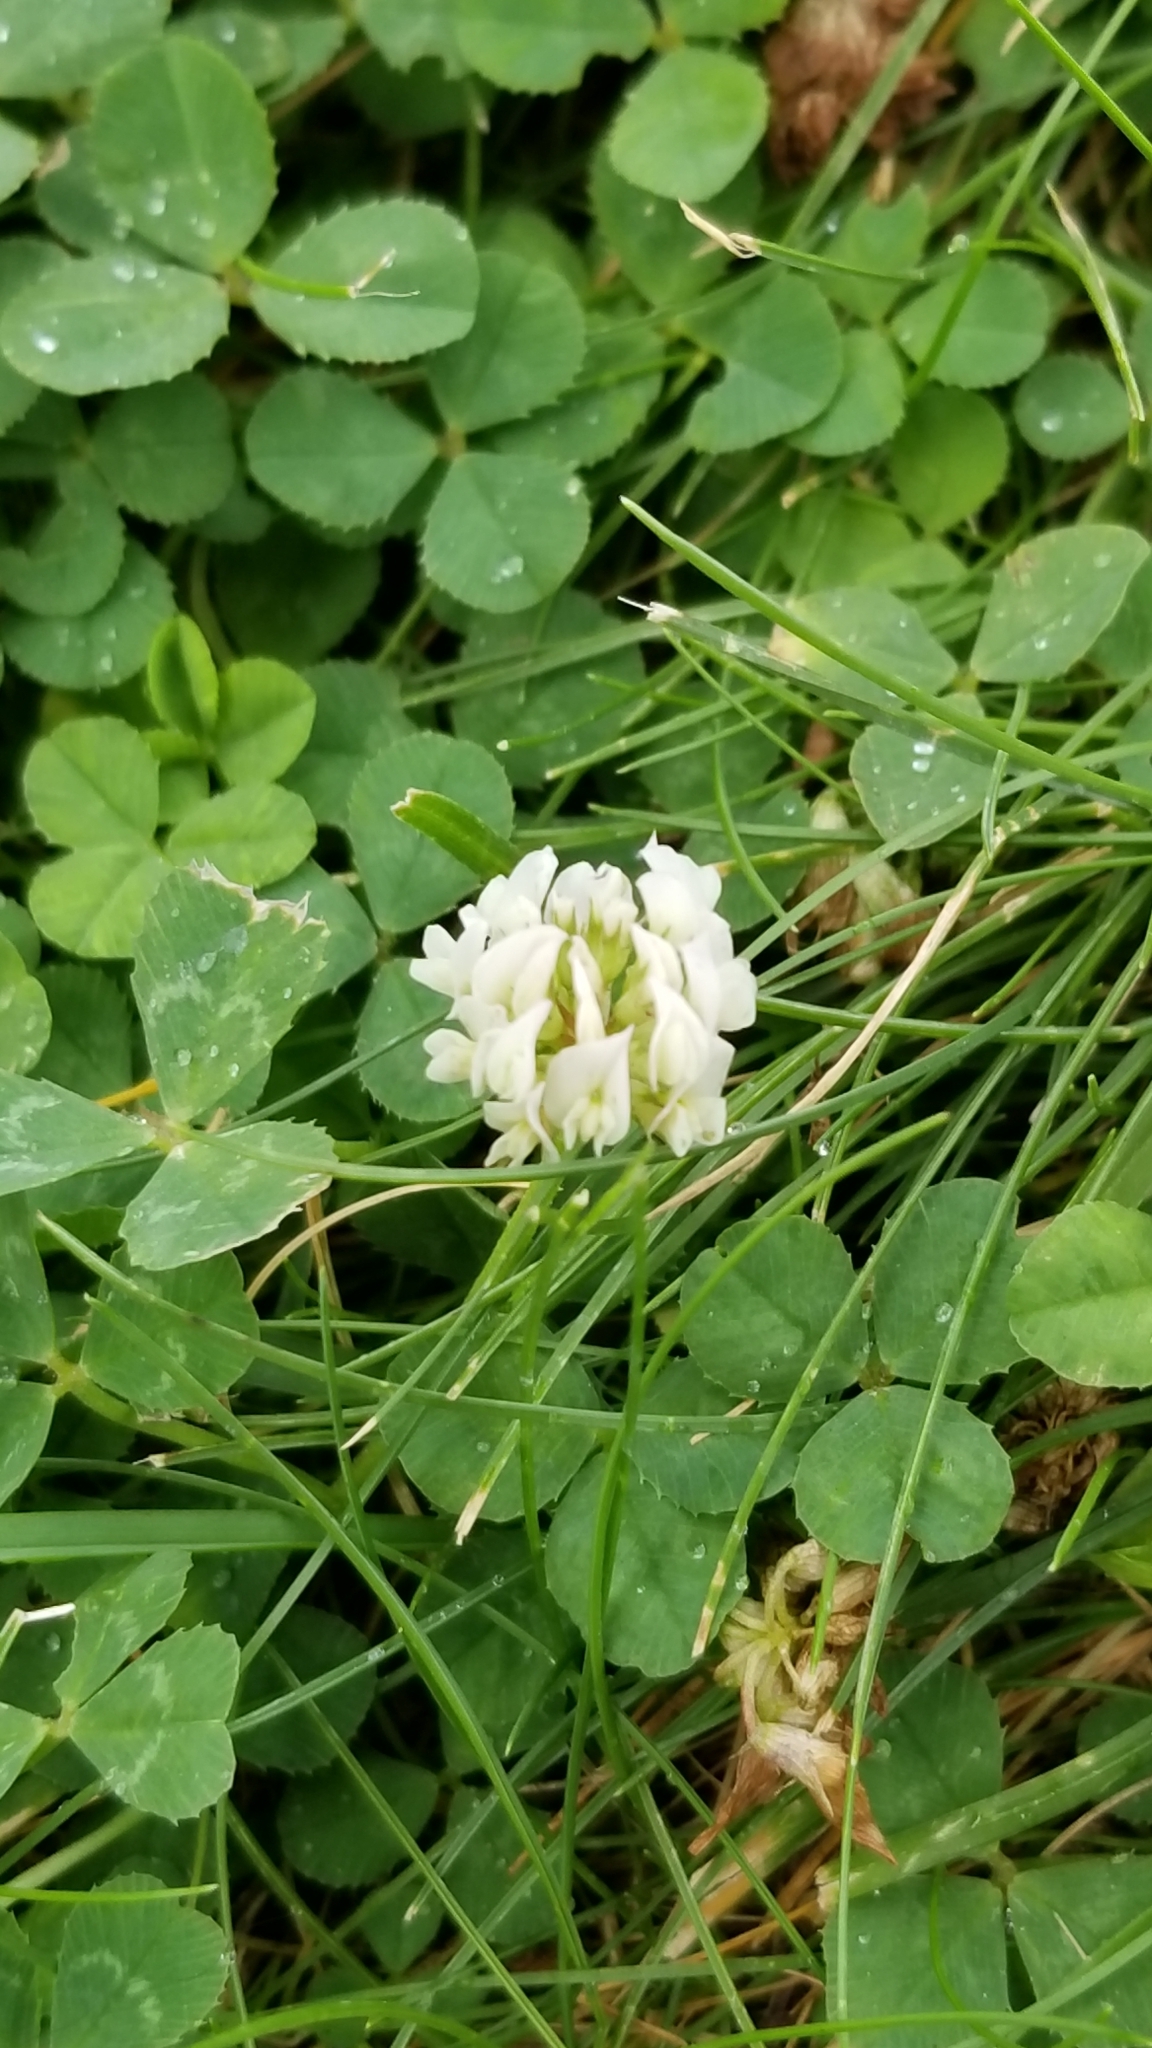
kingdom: Plantae
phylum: Tracheophyta
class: Magnoliopsida
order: Fabales
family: Fabaceae
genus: Trifolium
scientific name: Trifolium repens
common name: White clover
